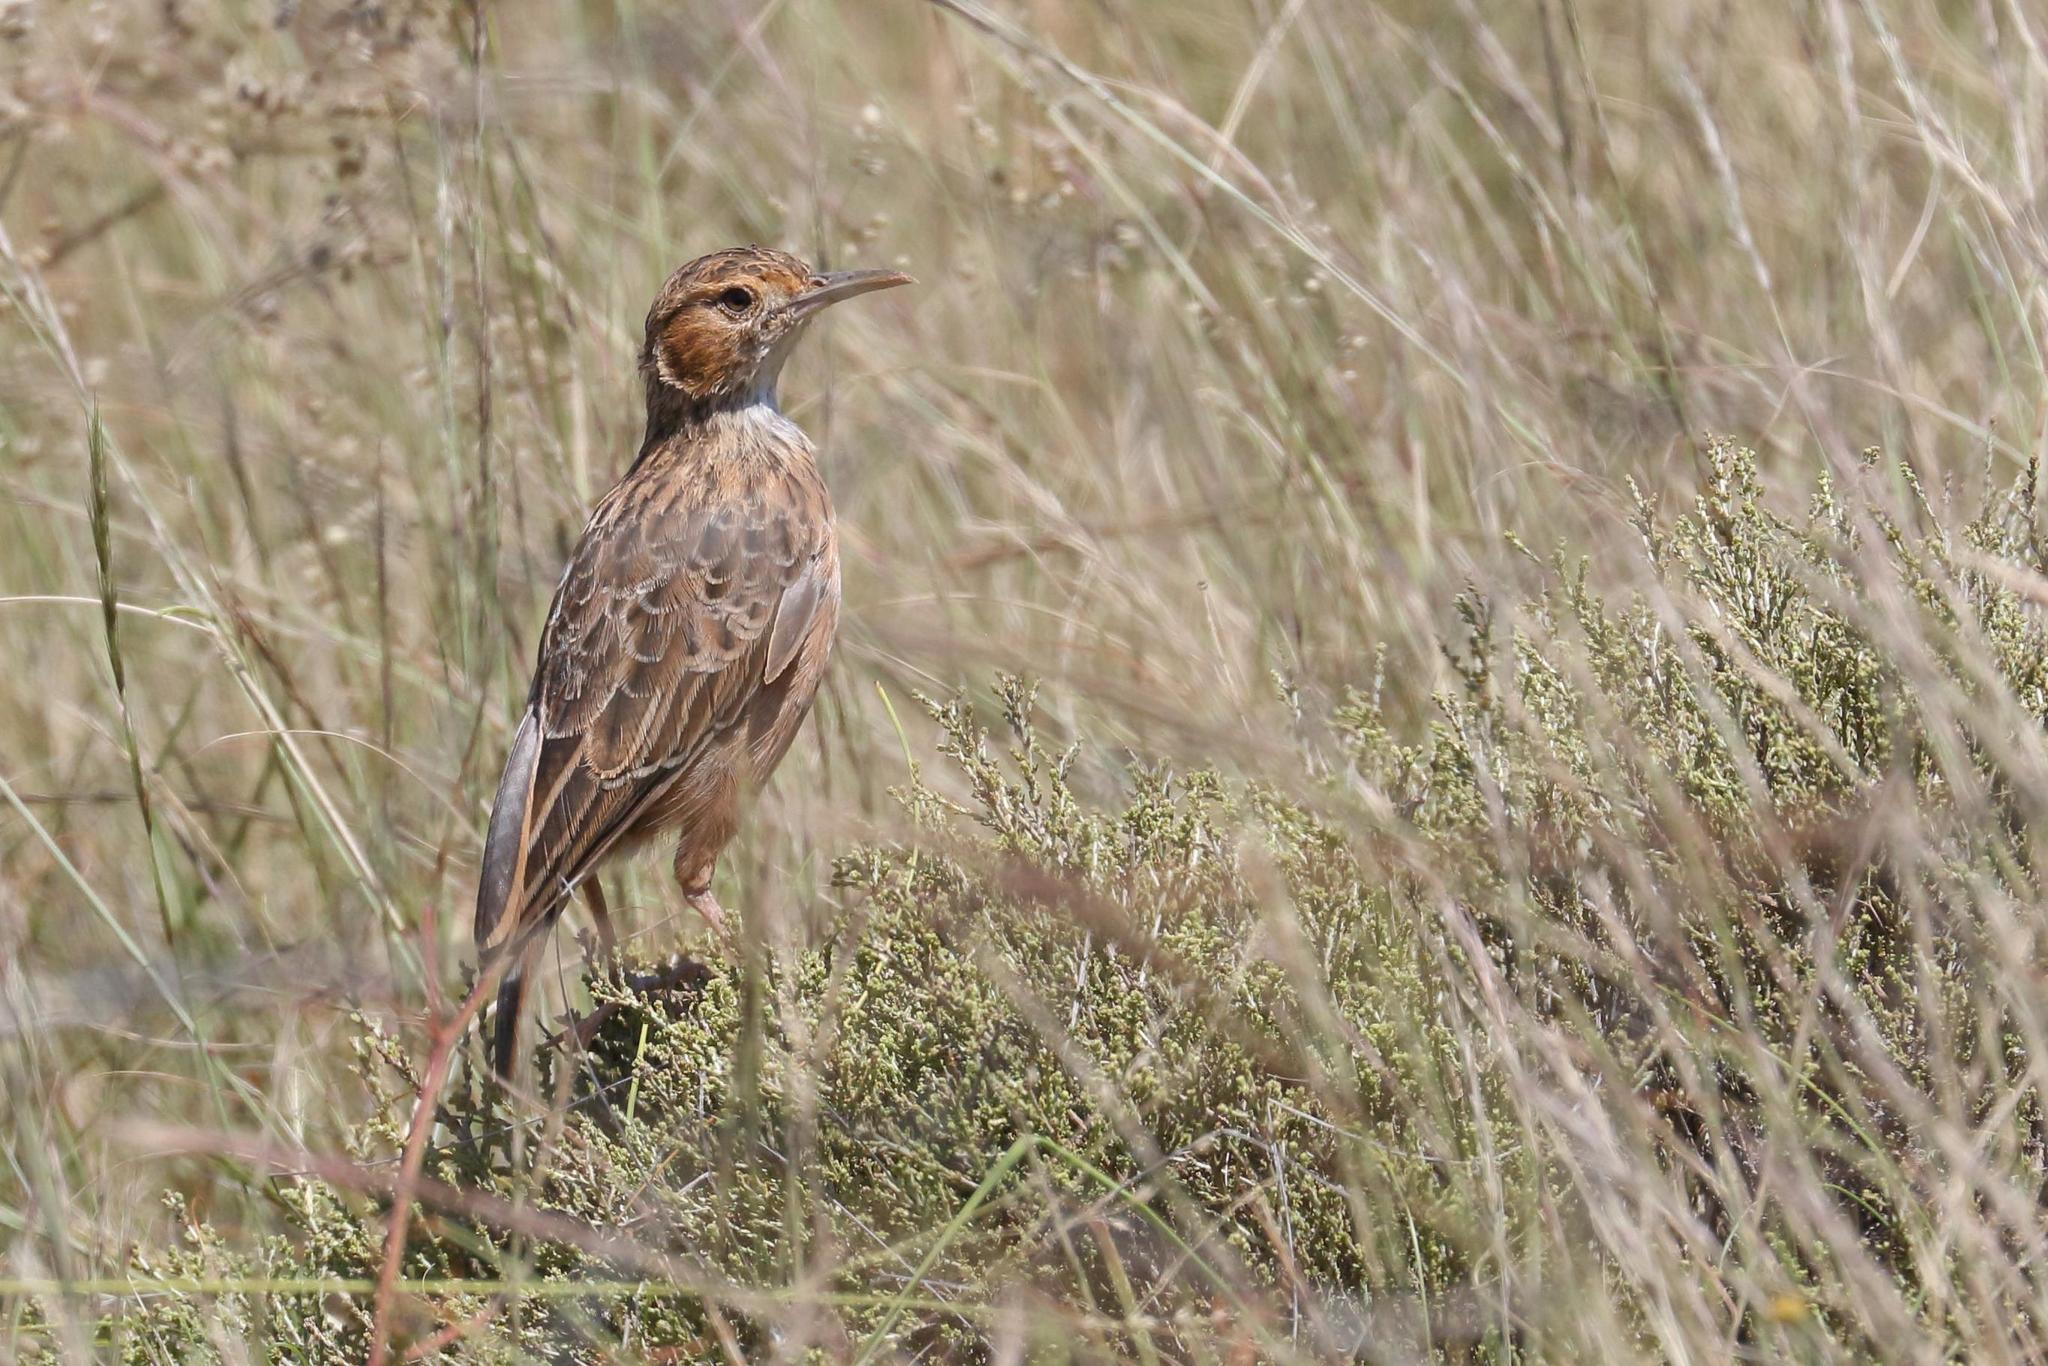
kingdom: Animalia
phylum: Chordata
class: Aves
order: Passeriformes
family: Alaudidae
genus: Chersomanes
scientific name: Chersomanes albofasciata
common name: Spike-heeled lark
